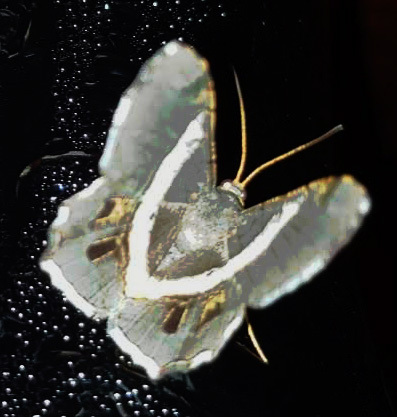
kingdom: Animalia
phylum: Arthropoda
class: Insecta
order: Lepidoptera
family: Geometridae
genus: Chiasmia
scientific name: Chiasmia nora
